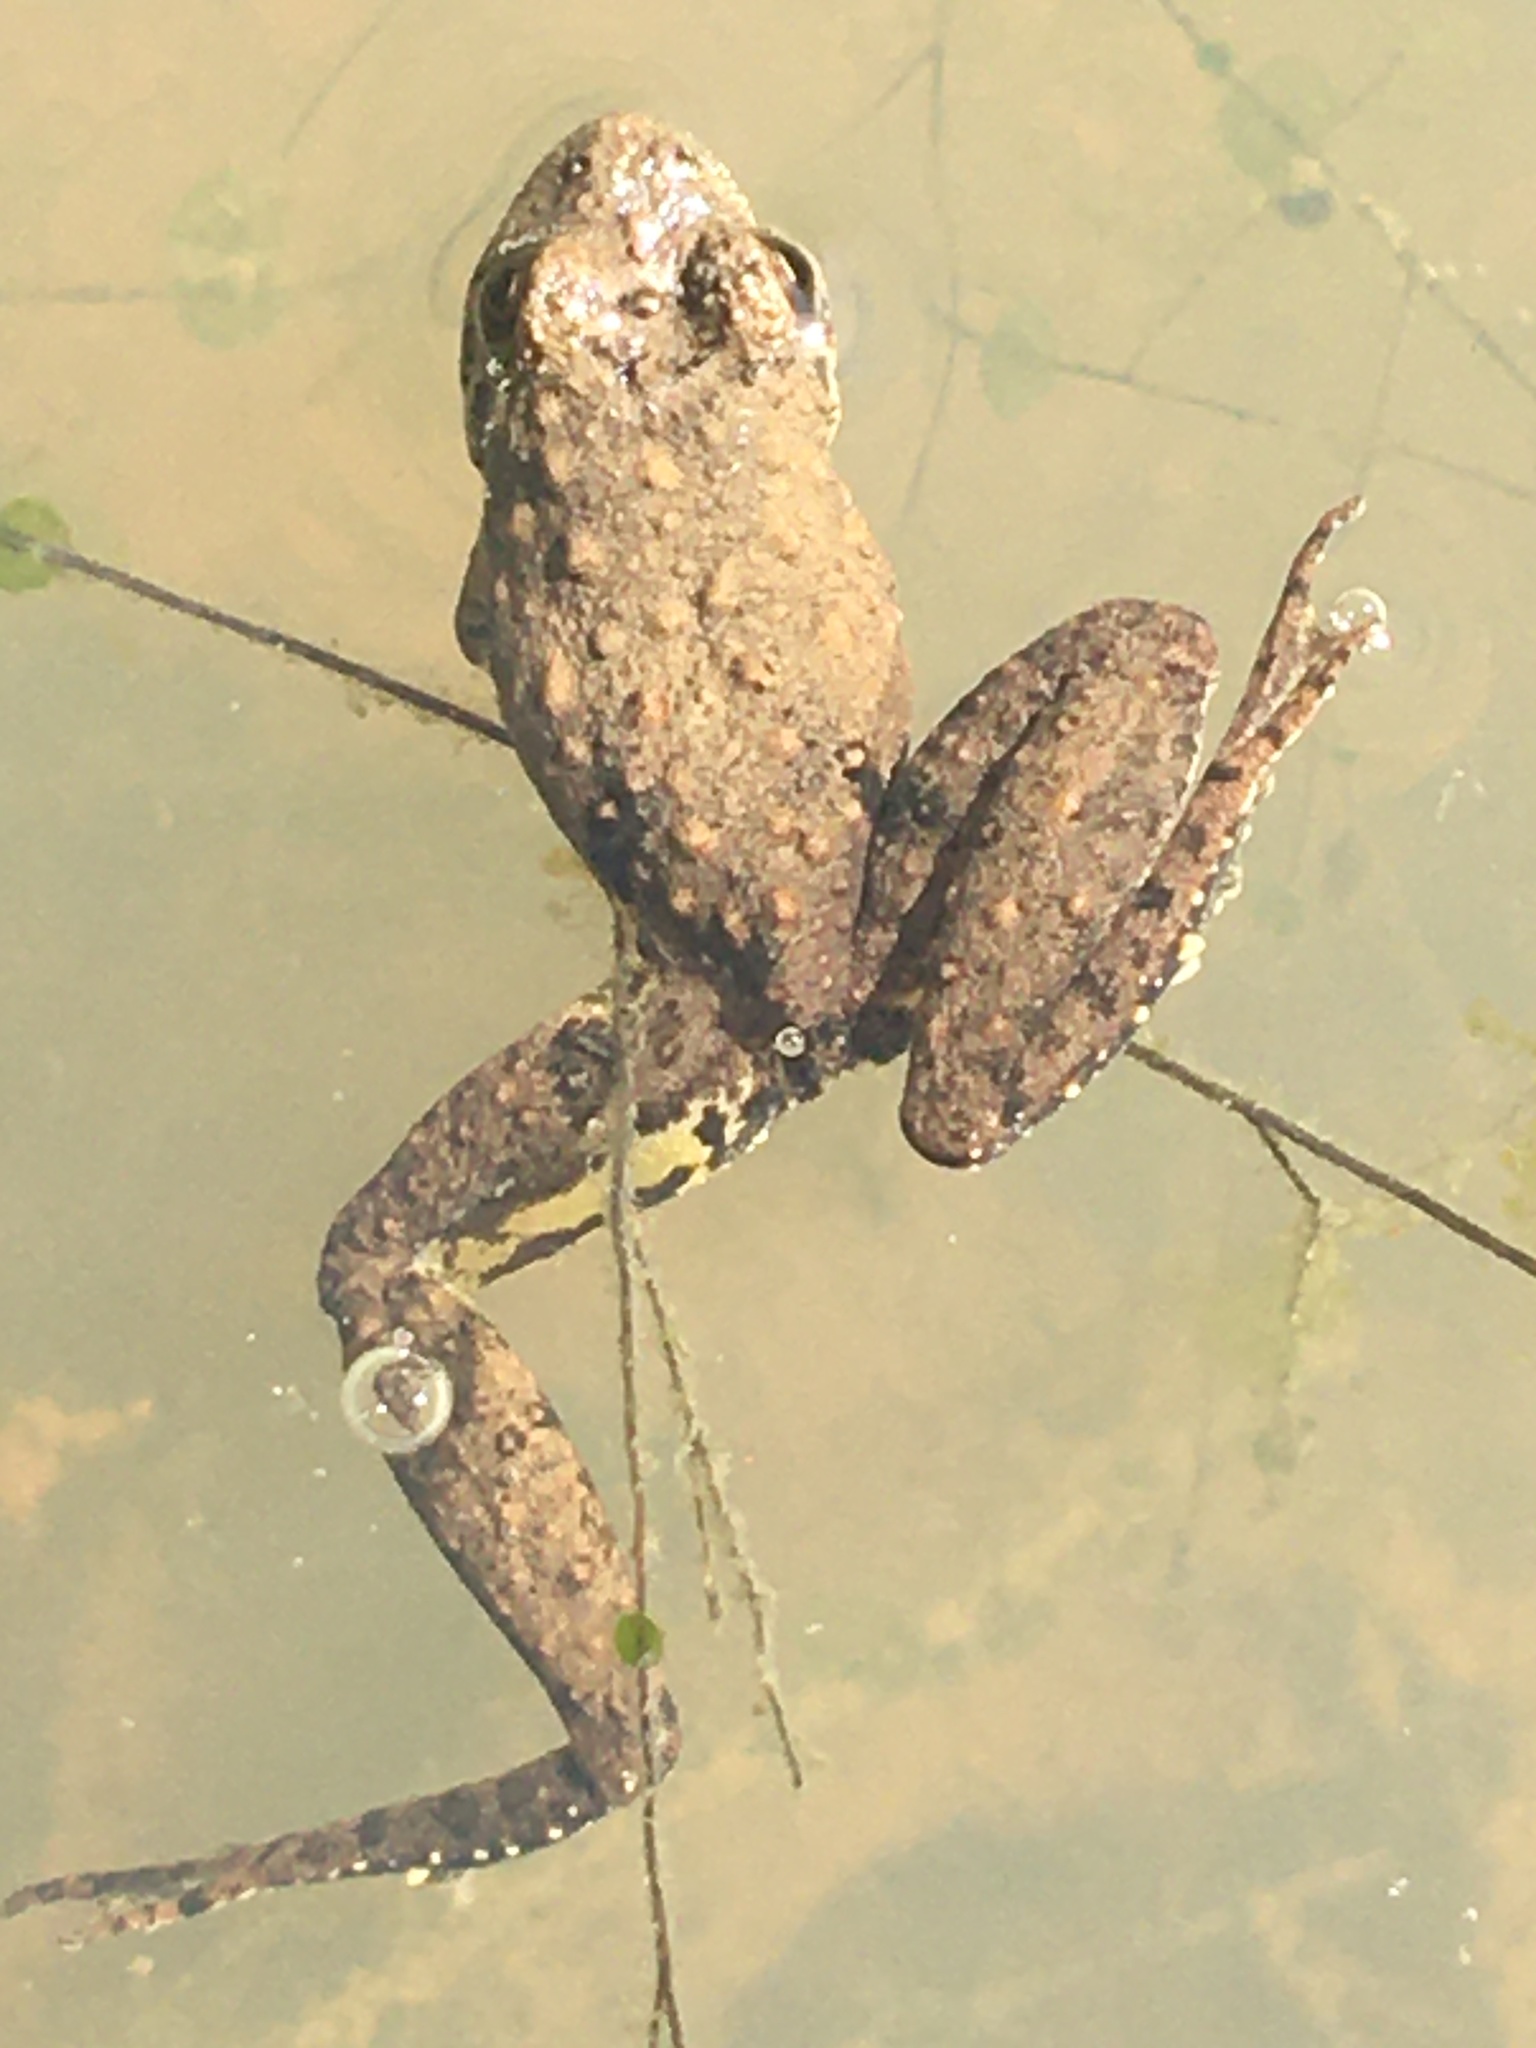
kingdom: Animalia
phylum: Chordata
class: Amphibia
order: Anura
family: Hylidae
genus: Acris
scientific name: Acris blanchardi
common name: Blanchard's cricket frog
